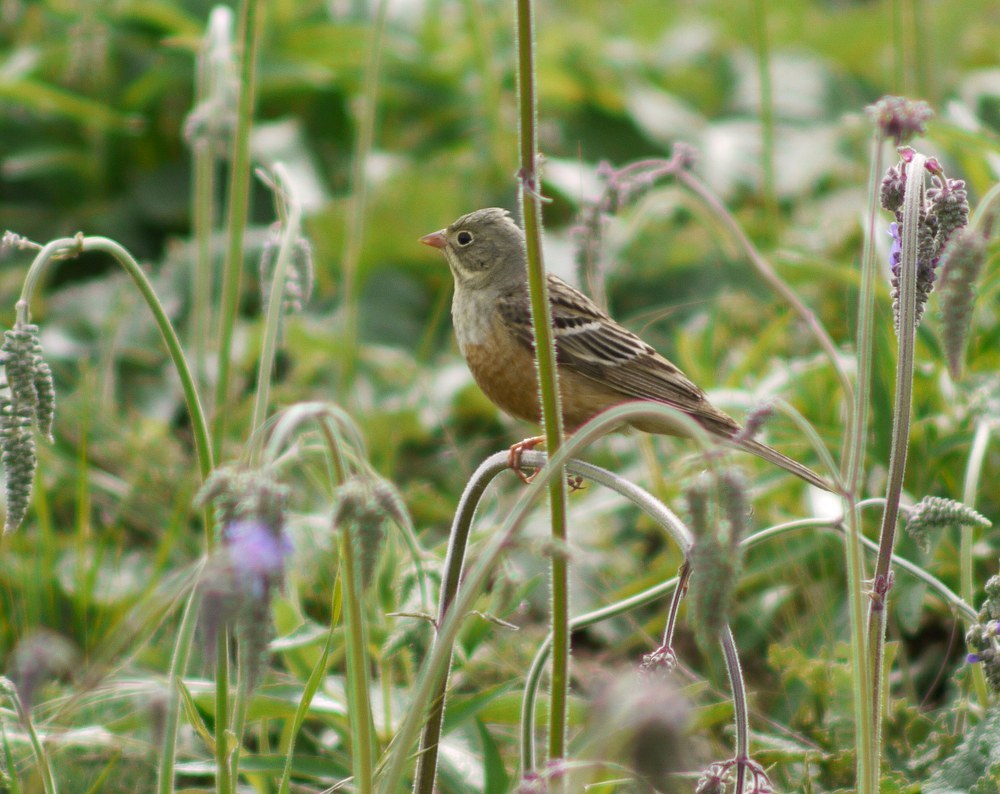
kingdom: Animalia
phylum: Chordata
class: Aves
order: Passeriformes
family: Emberizidae
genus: Emberiza
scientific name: Emberiza hortulana
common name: Ortolan bunting
